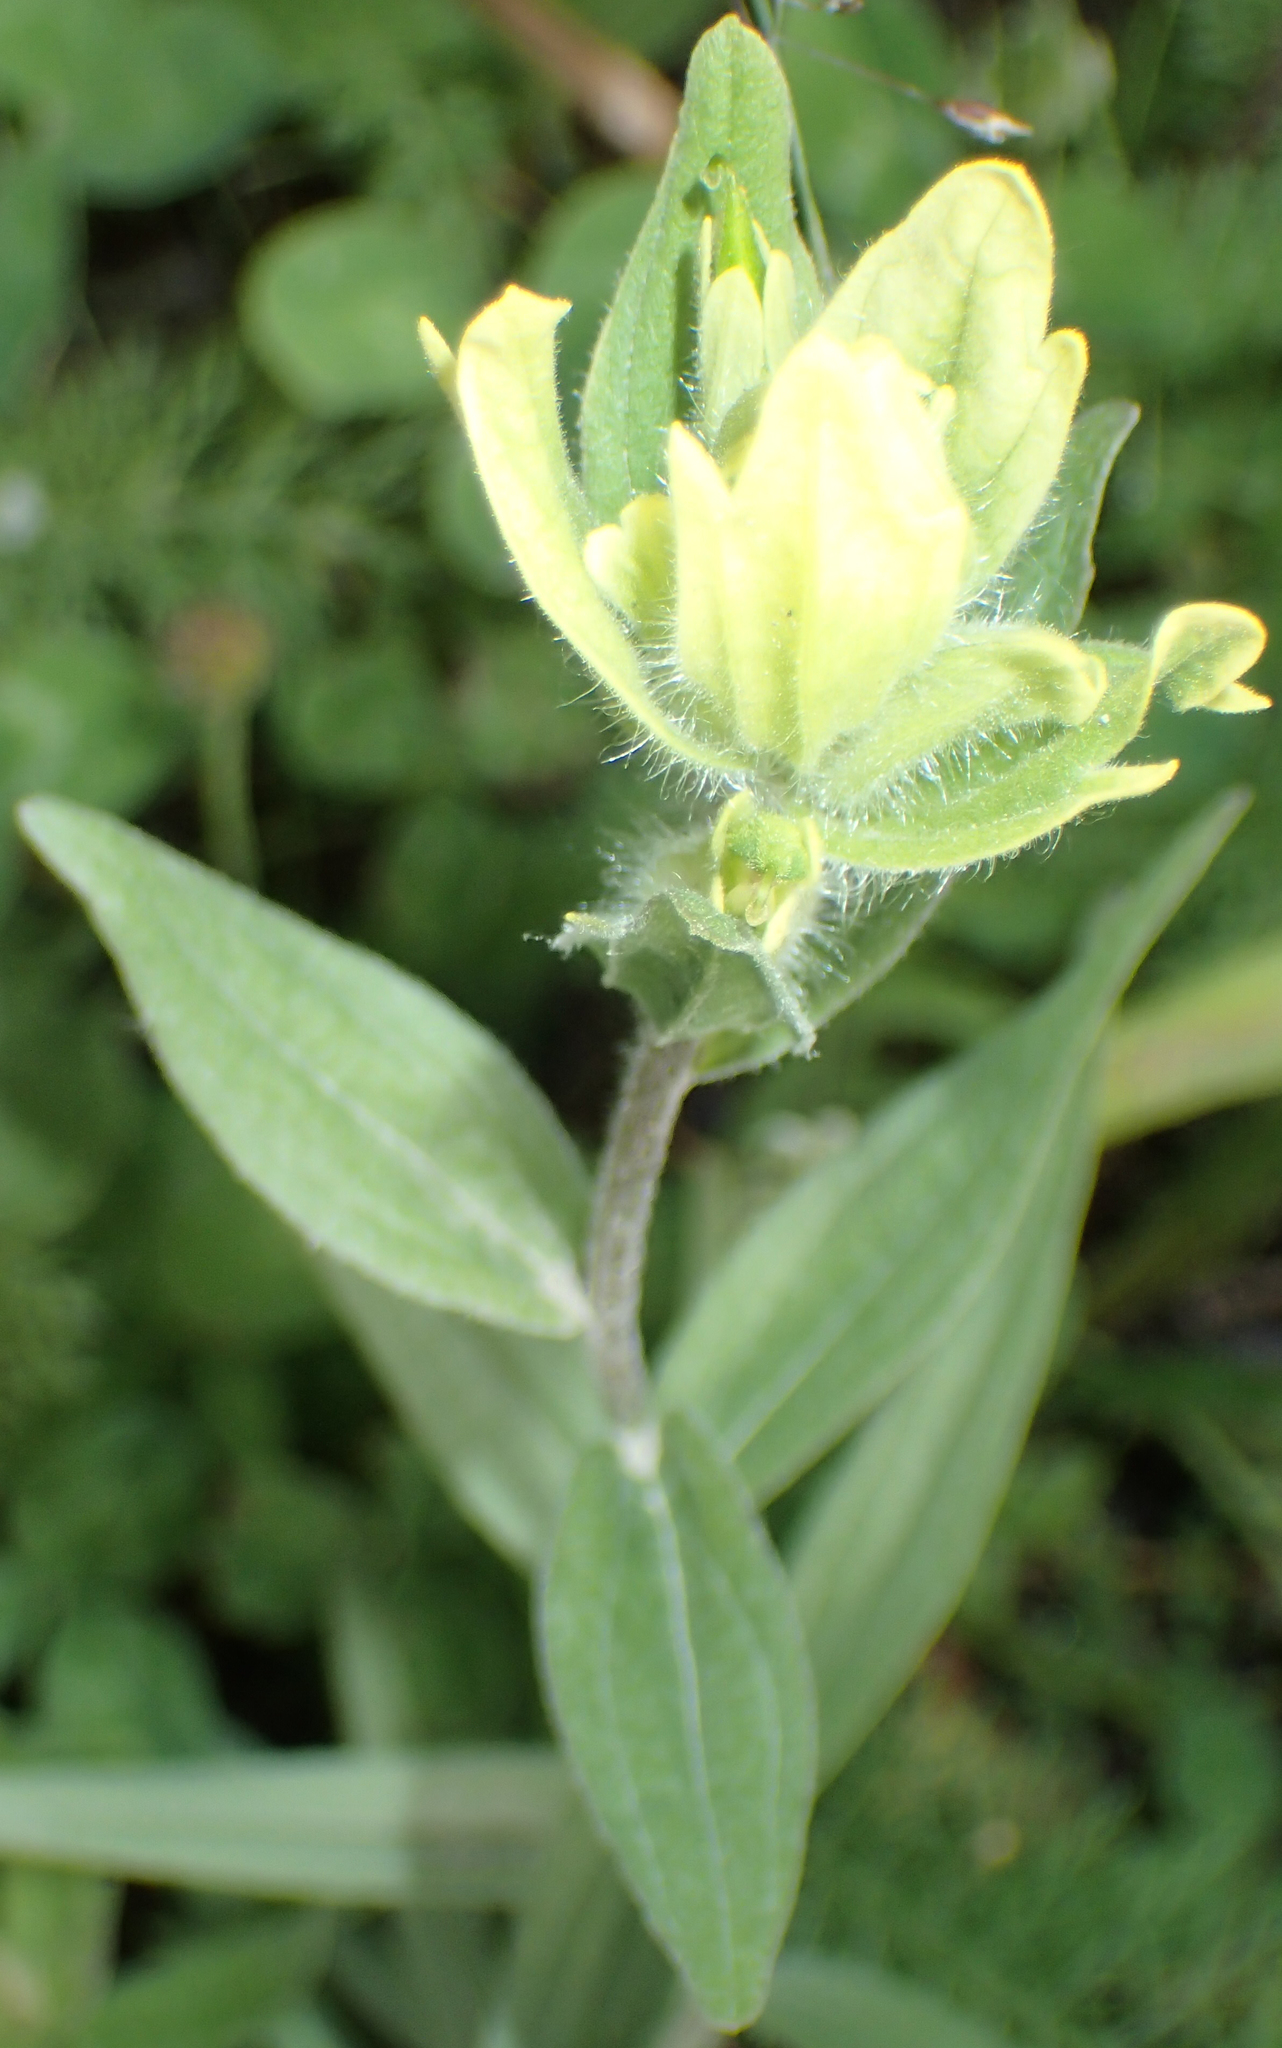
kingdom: Plantae
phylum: Tracheophyta
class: Magnoliopsida
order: Lamiales
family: Orobanchaceae
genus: Castilleja
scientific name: Castilleja unalaschcensis
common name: Unalaska paintbrush
